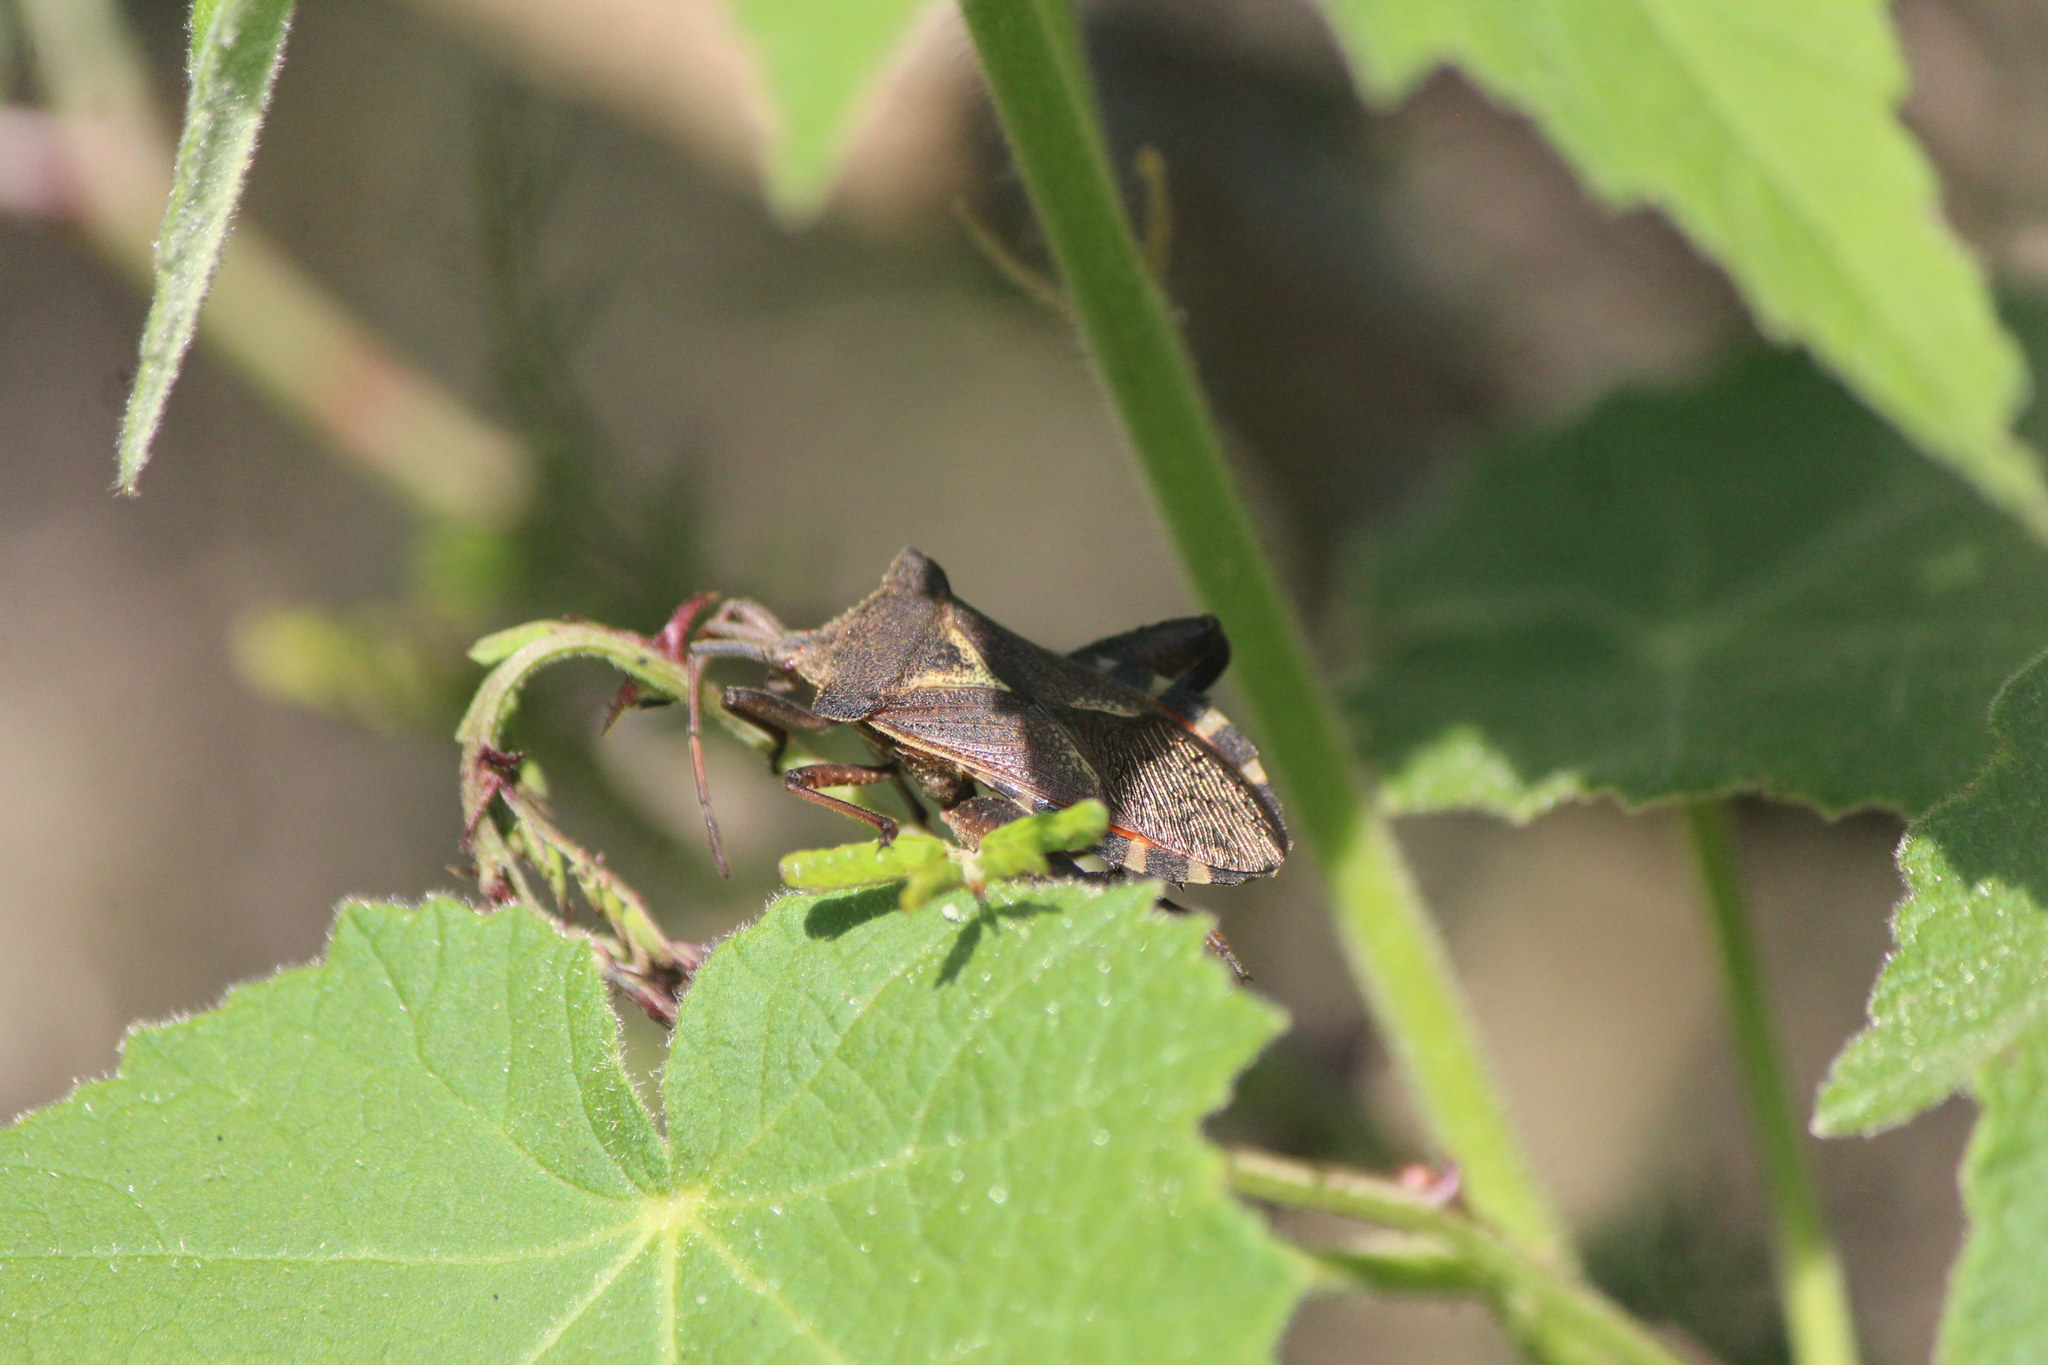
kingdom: Animalia
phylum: Arthropoda
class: Insecta
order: Hemiptera
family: Coreidae
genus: Mozena
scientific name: Mozena buenoi
